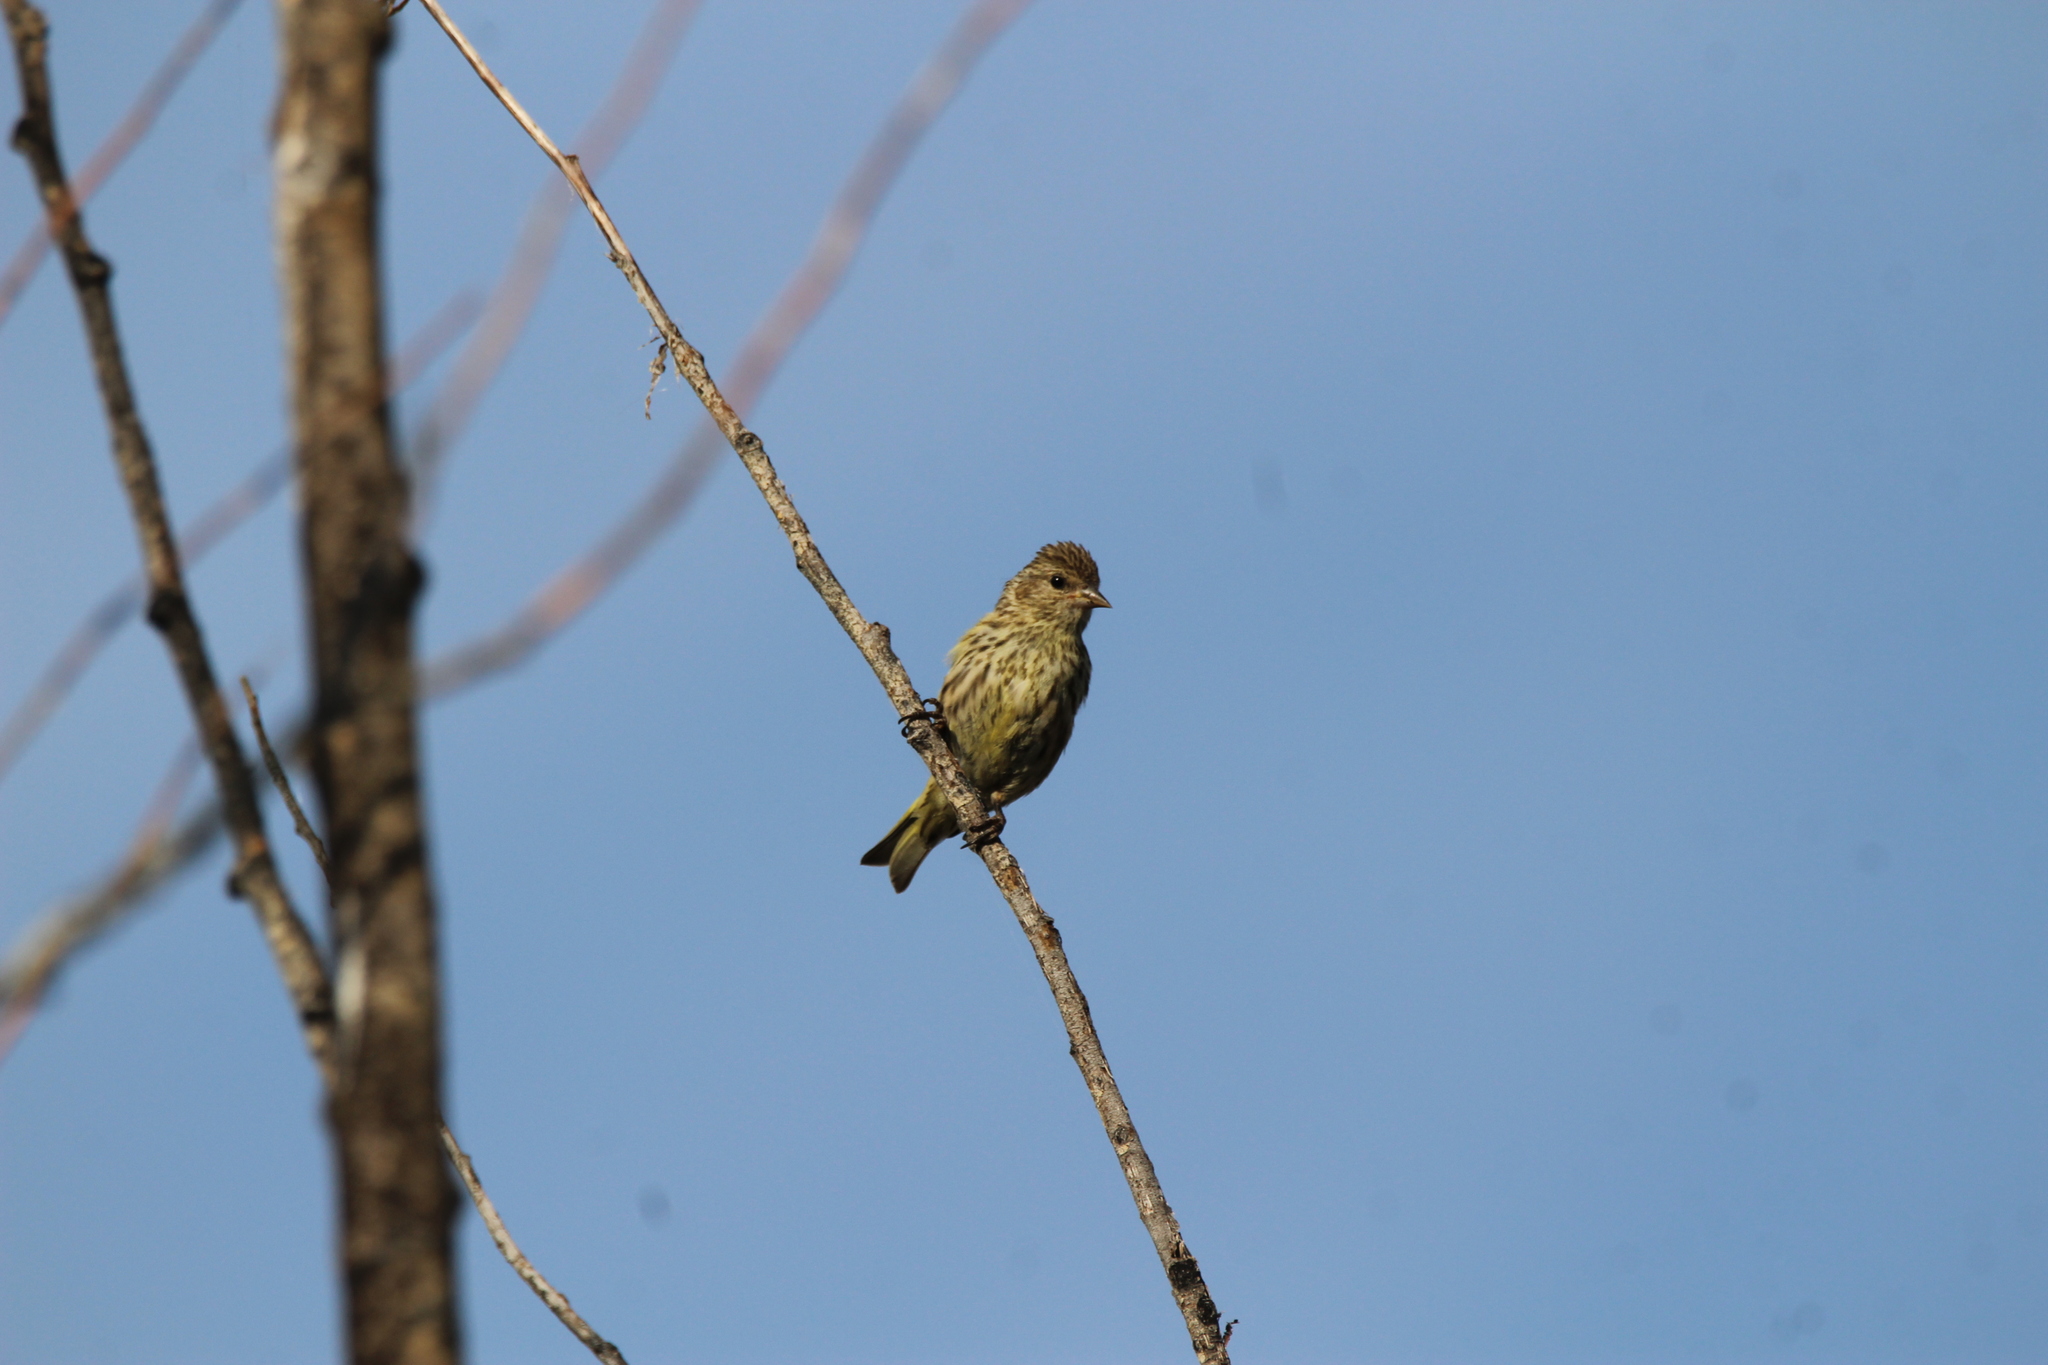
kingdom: Animalia
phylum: Chordata
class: Aves
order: Passeriformes
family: Fringillidae
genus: Spinus
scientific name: Spinus pinus
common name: Pine siskin
